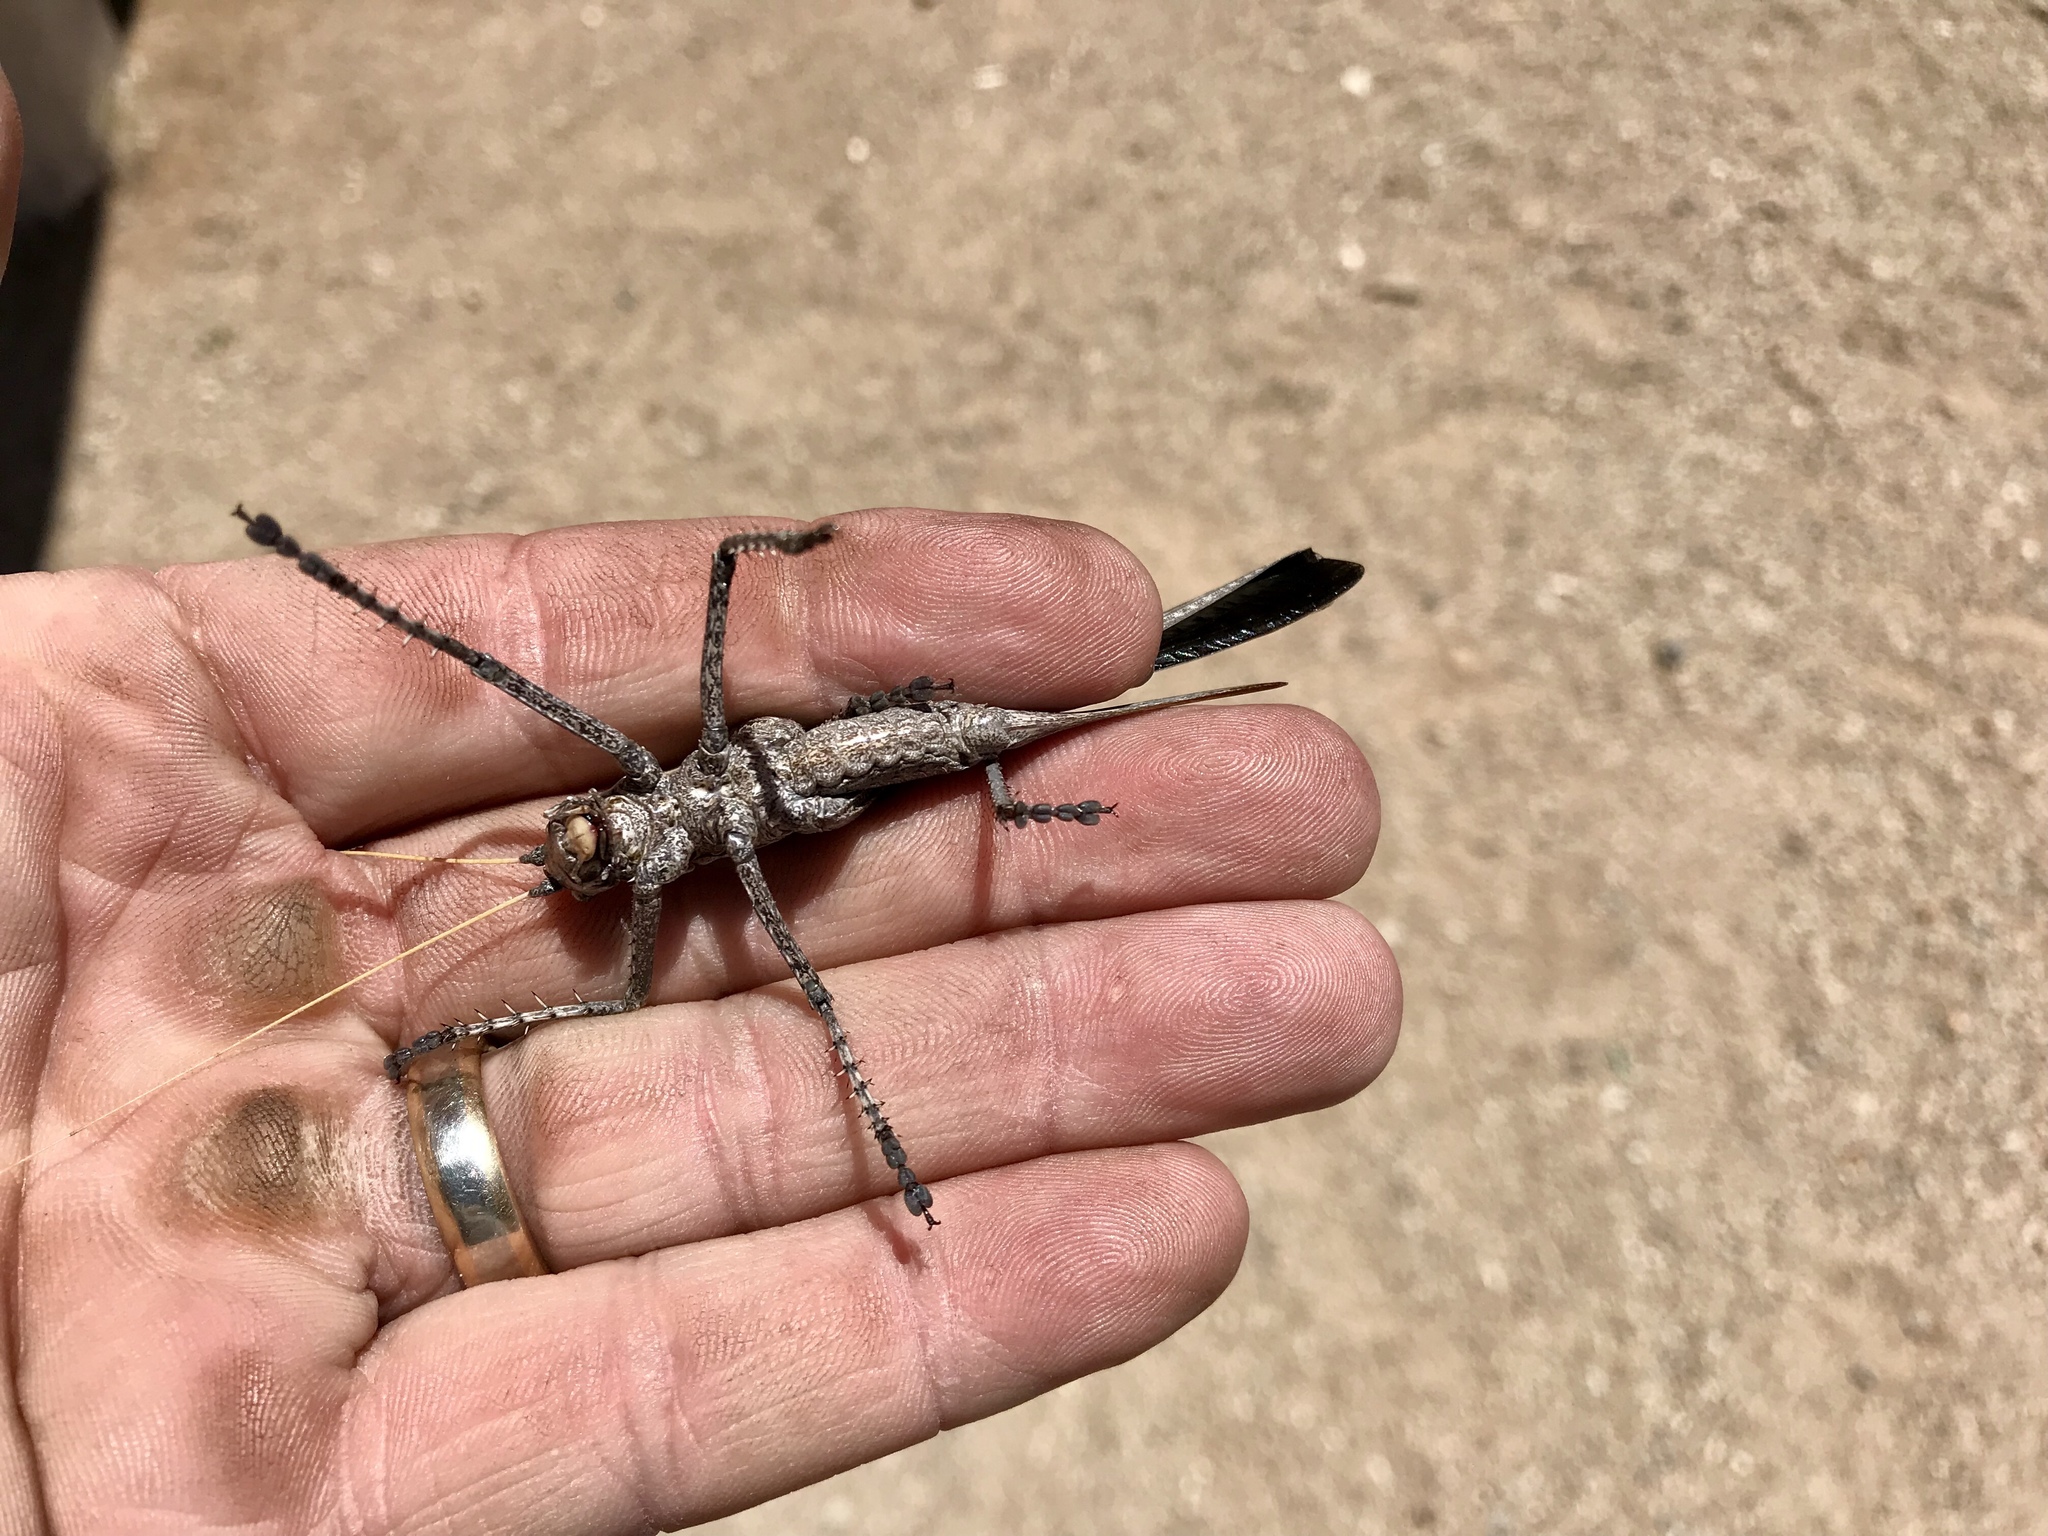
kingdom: Animalia
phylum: Arthropoda
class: Insecta
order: Orthoptera
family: Tettigoniidae
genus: Capnobotes
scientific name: Capnobotes fuliginosus
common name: Sooty longwing
